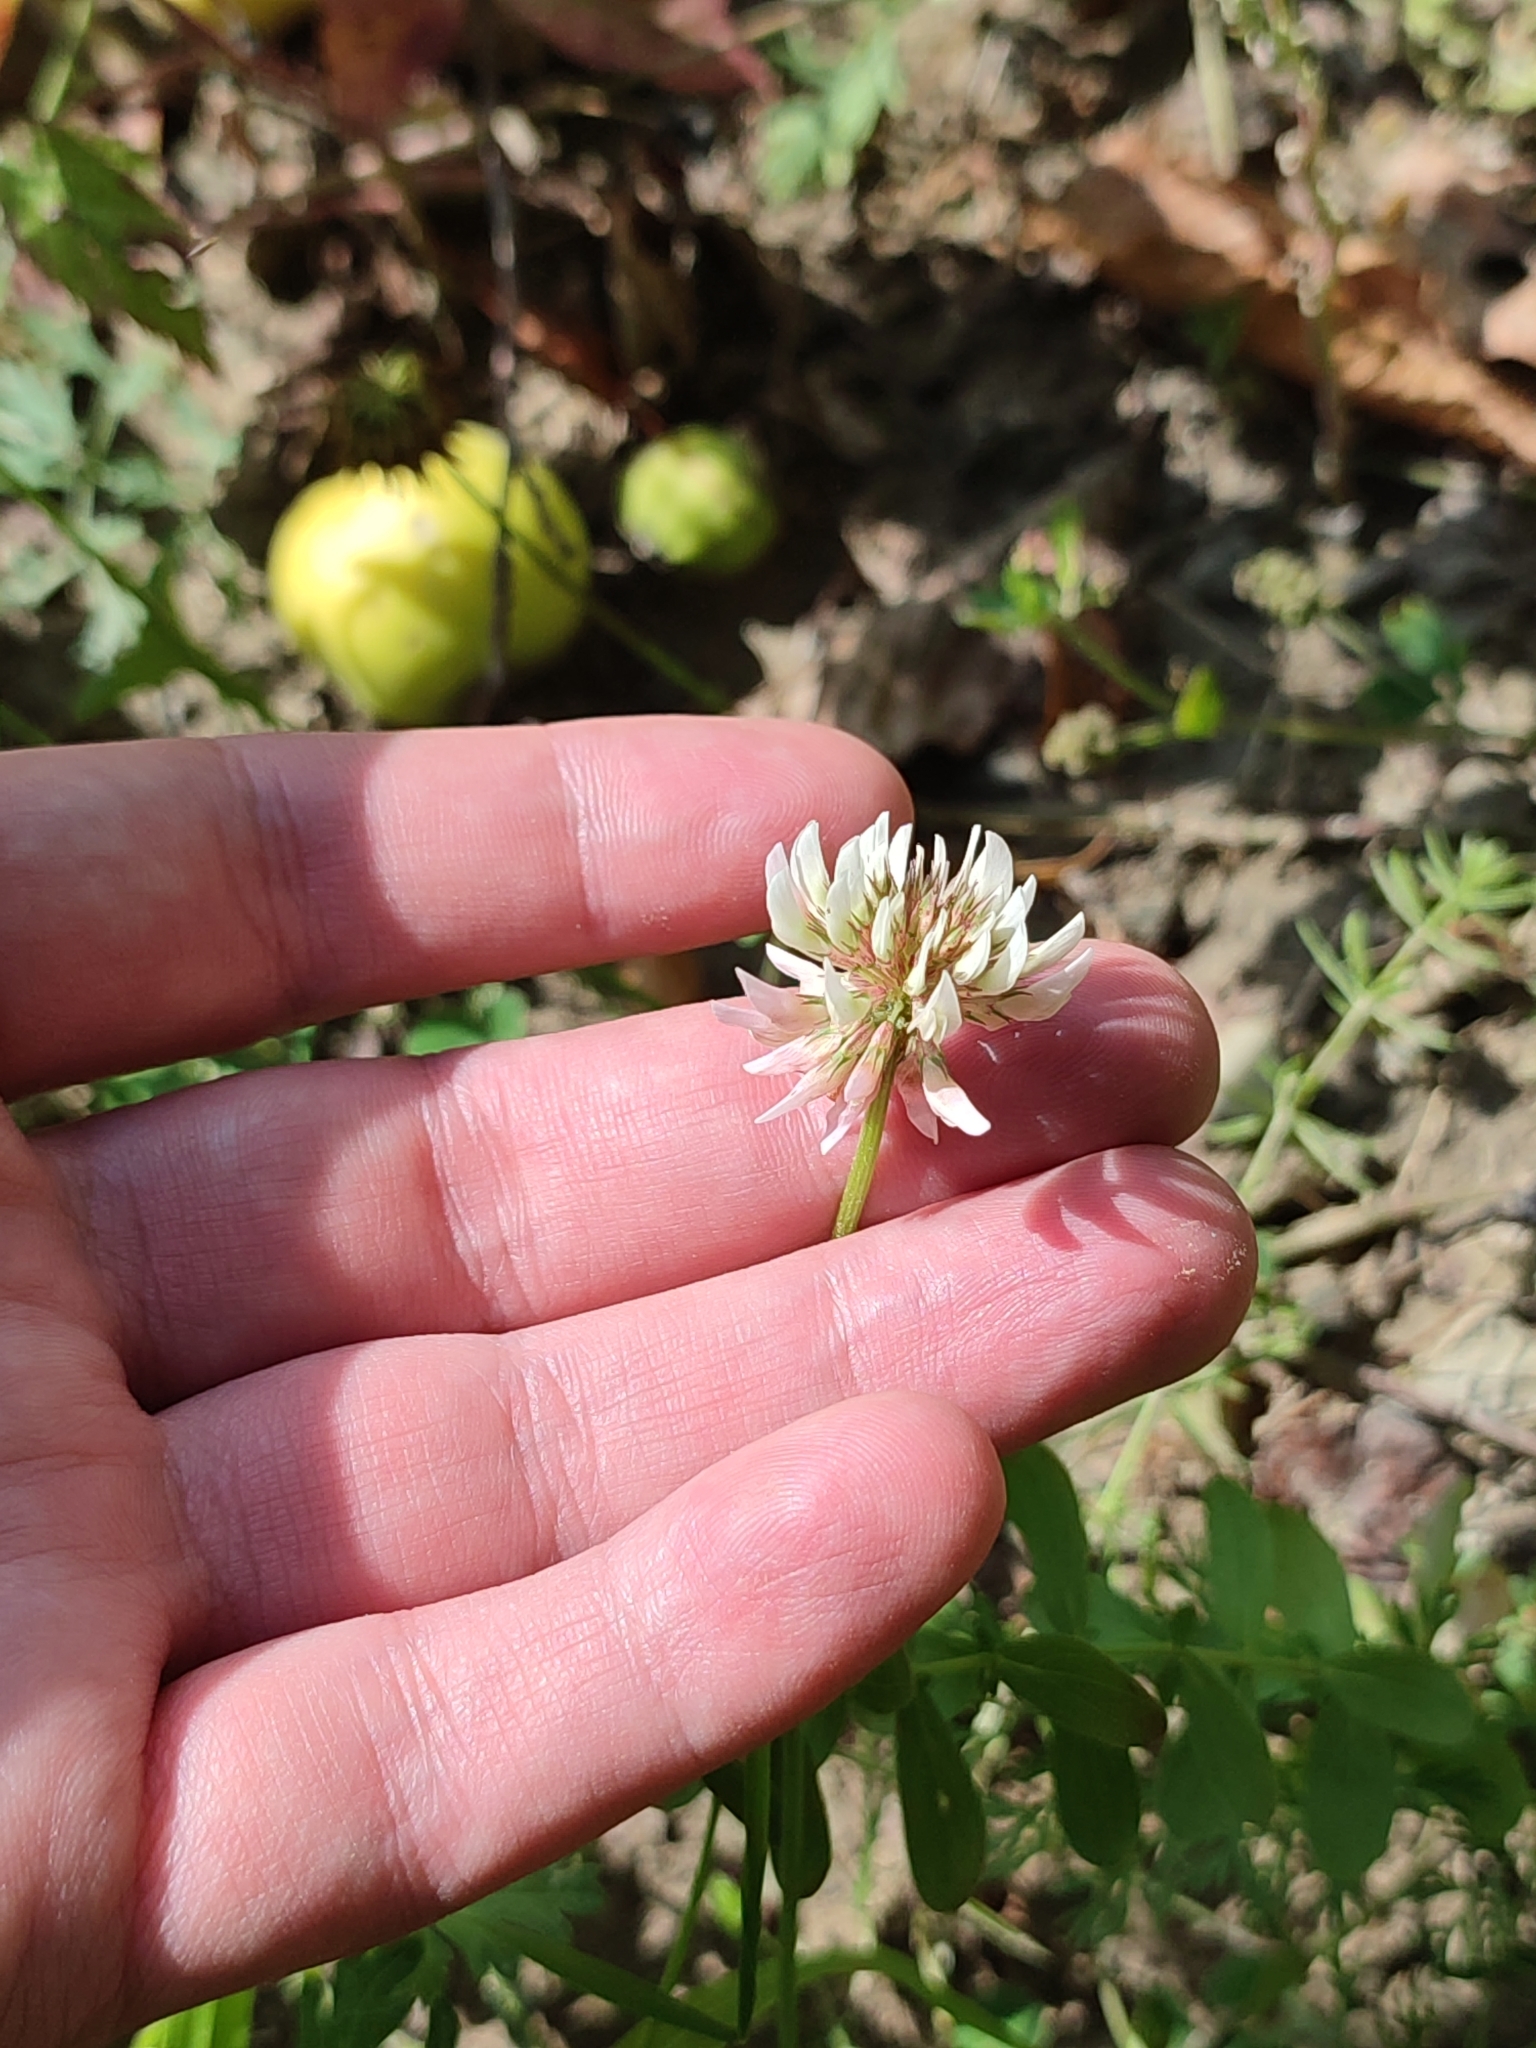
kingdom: Plantae
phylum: Tracheophyta
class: Magnoliopsida
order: Fabales
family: Fabaceae
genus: Trifolium
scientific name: Trifolium repens
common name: White clover
